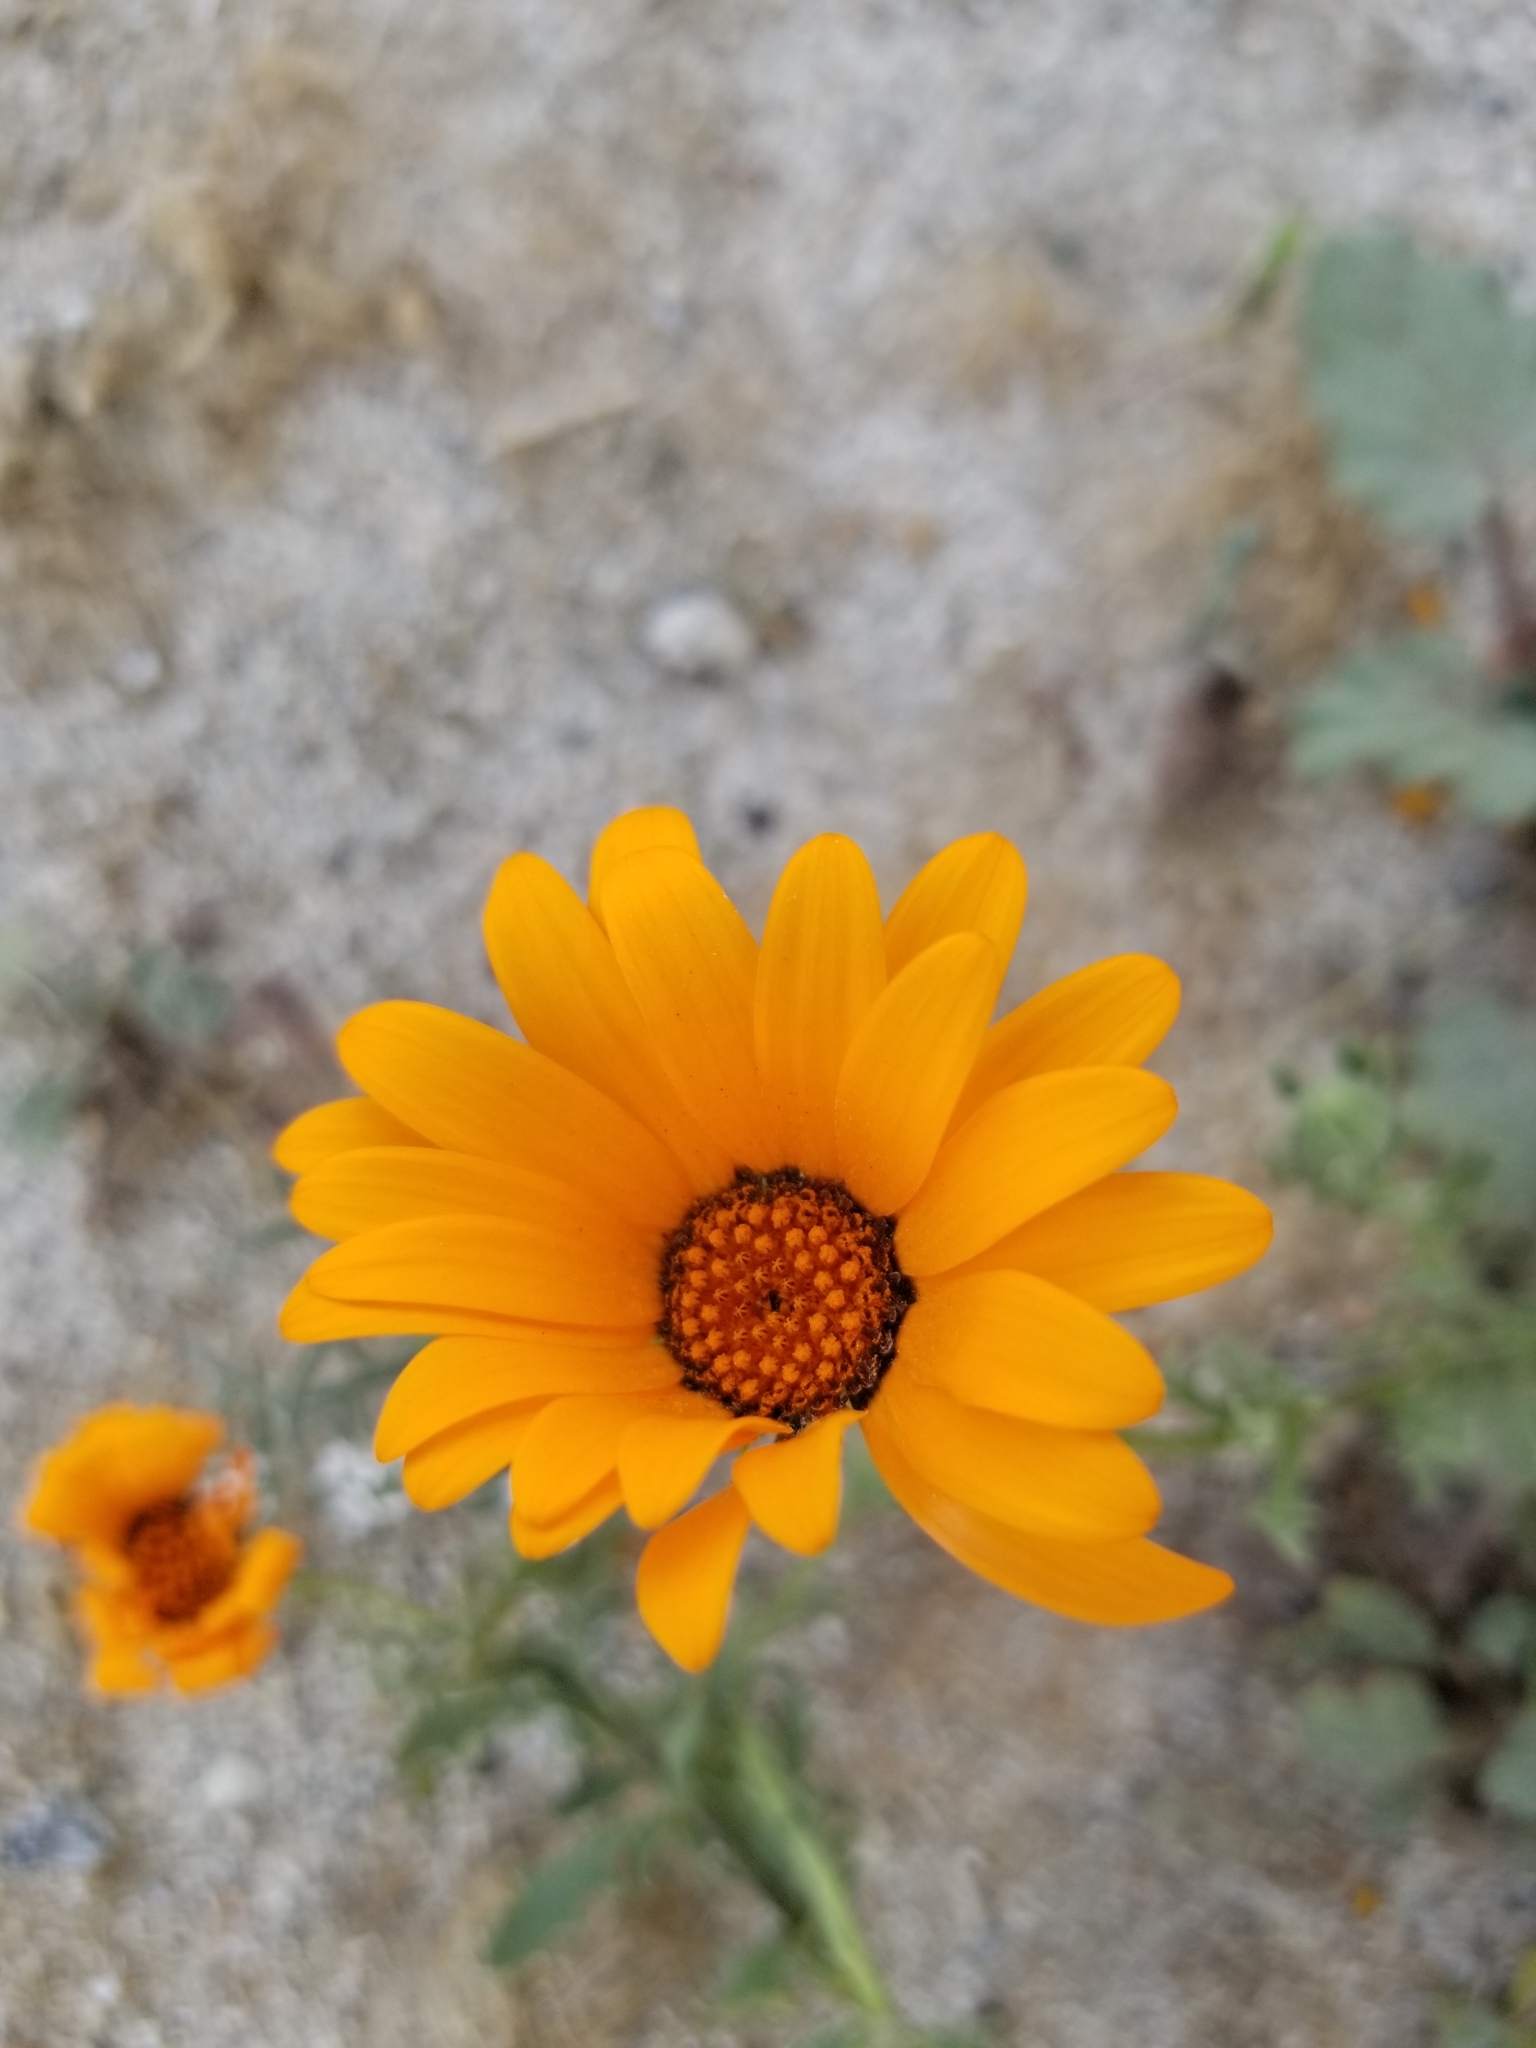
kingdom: Plantae
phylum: Tracheophyta
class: Magnoliopsida
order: Asterales
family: Asteraceae
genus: Dimorphotheca
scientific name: Dimorphotheca sinuata
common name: Glandular cape marigold
